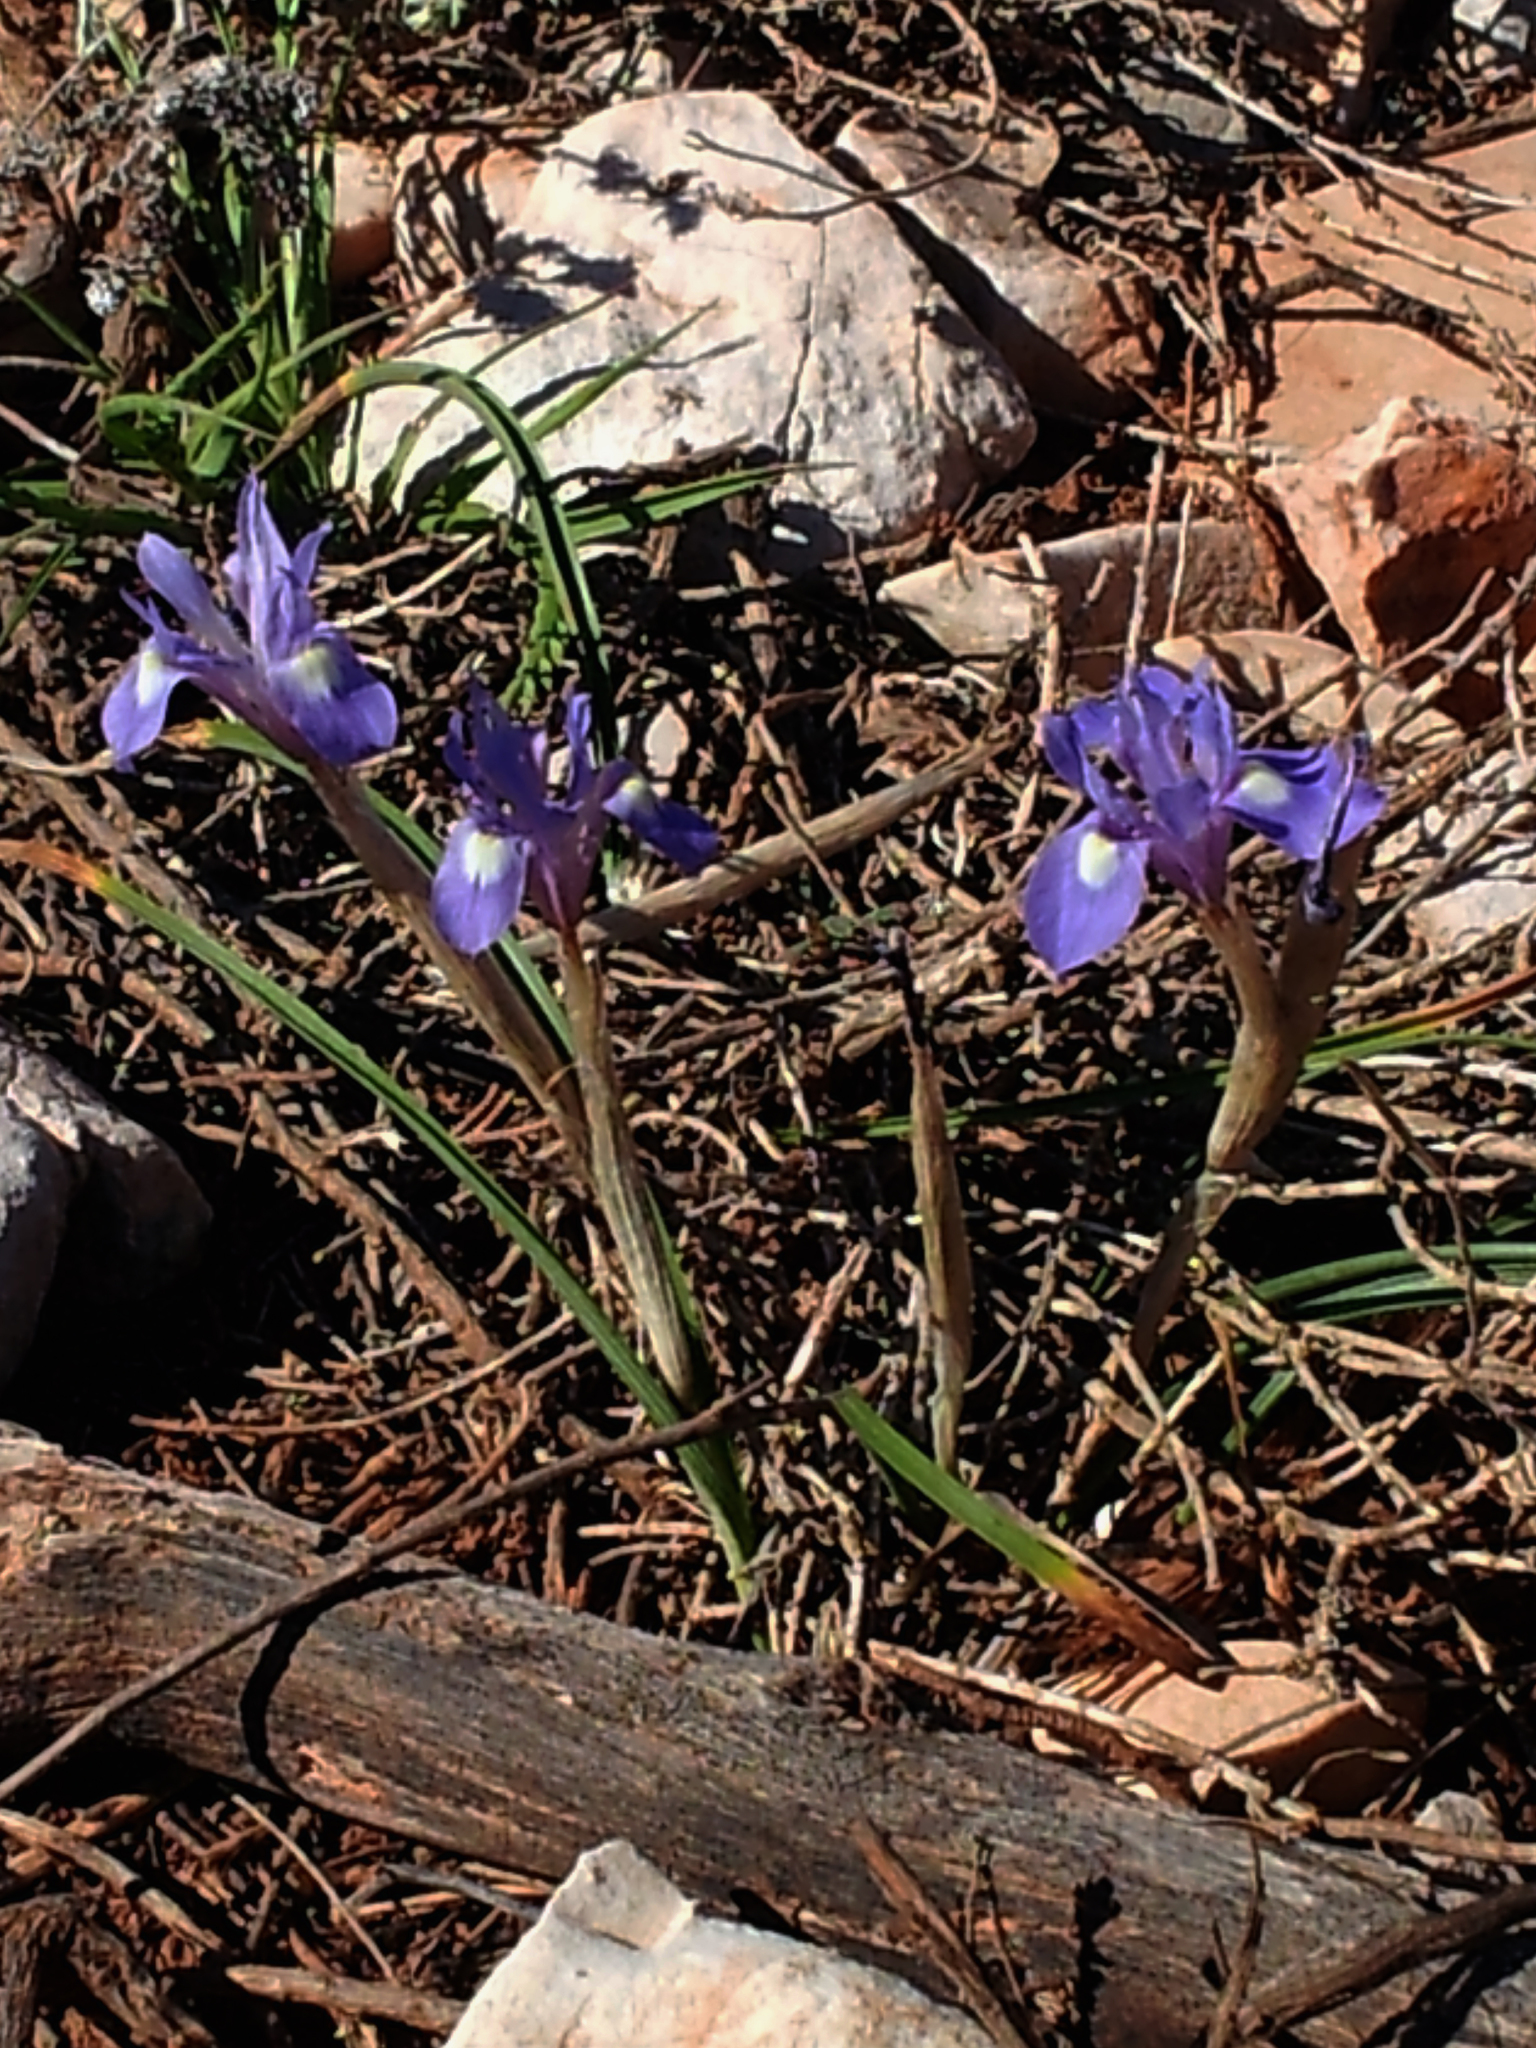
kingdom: Plantae
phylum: Tracheophyta
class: Liliopsida
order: Asparagales
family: Iridaceae
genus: Moraea
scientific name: Moraea sisyrinchium
